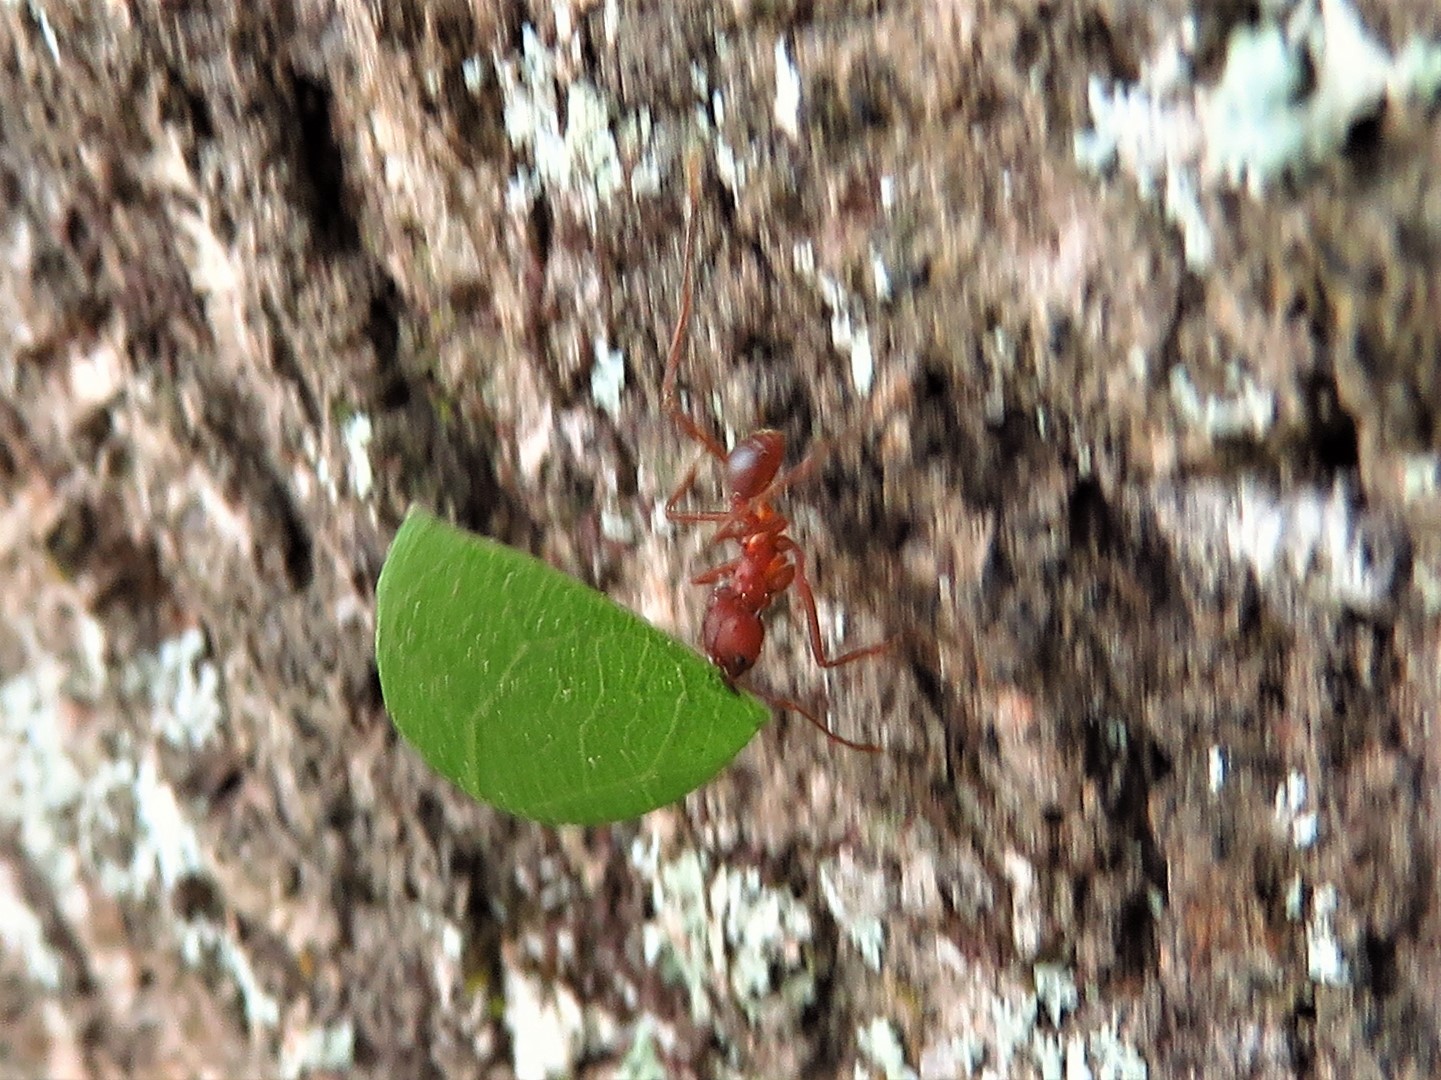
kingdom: Animalia
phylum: Arthropoda
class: Insecta
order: Hymenoptera
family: Formicidae
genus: Atta
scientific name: Atta texana
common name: Texas leafcutting ant
